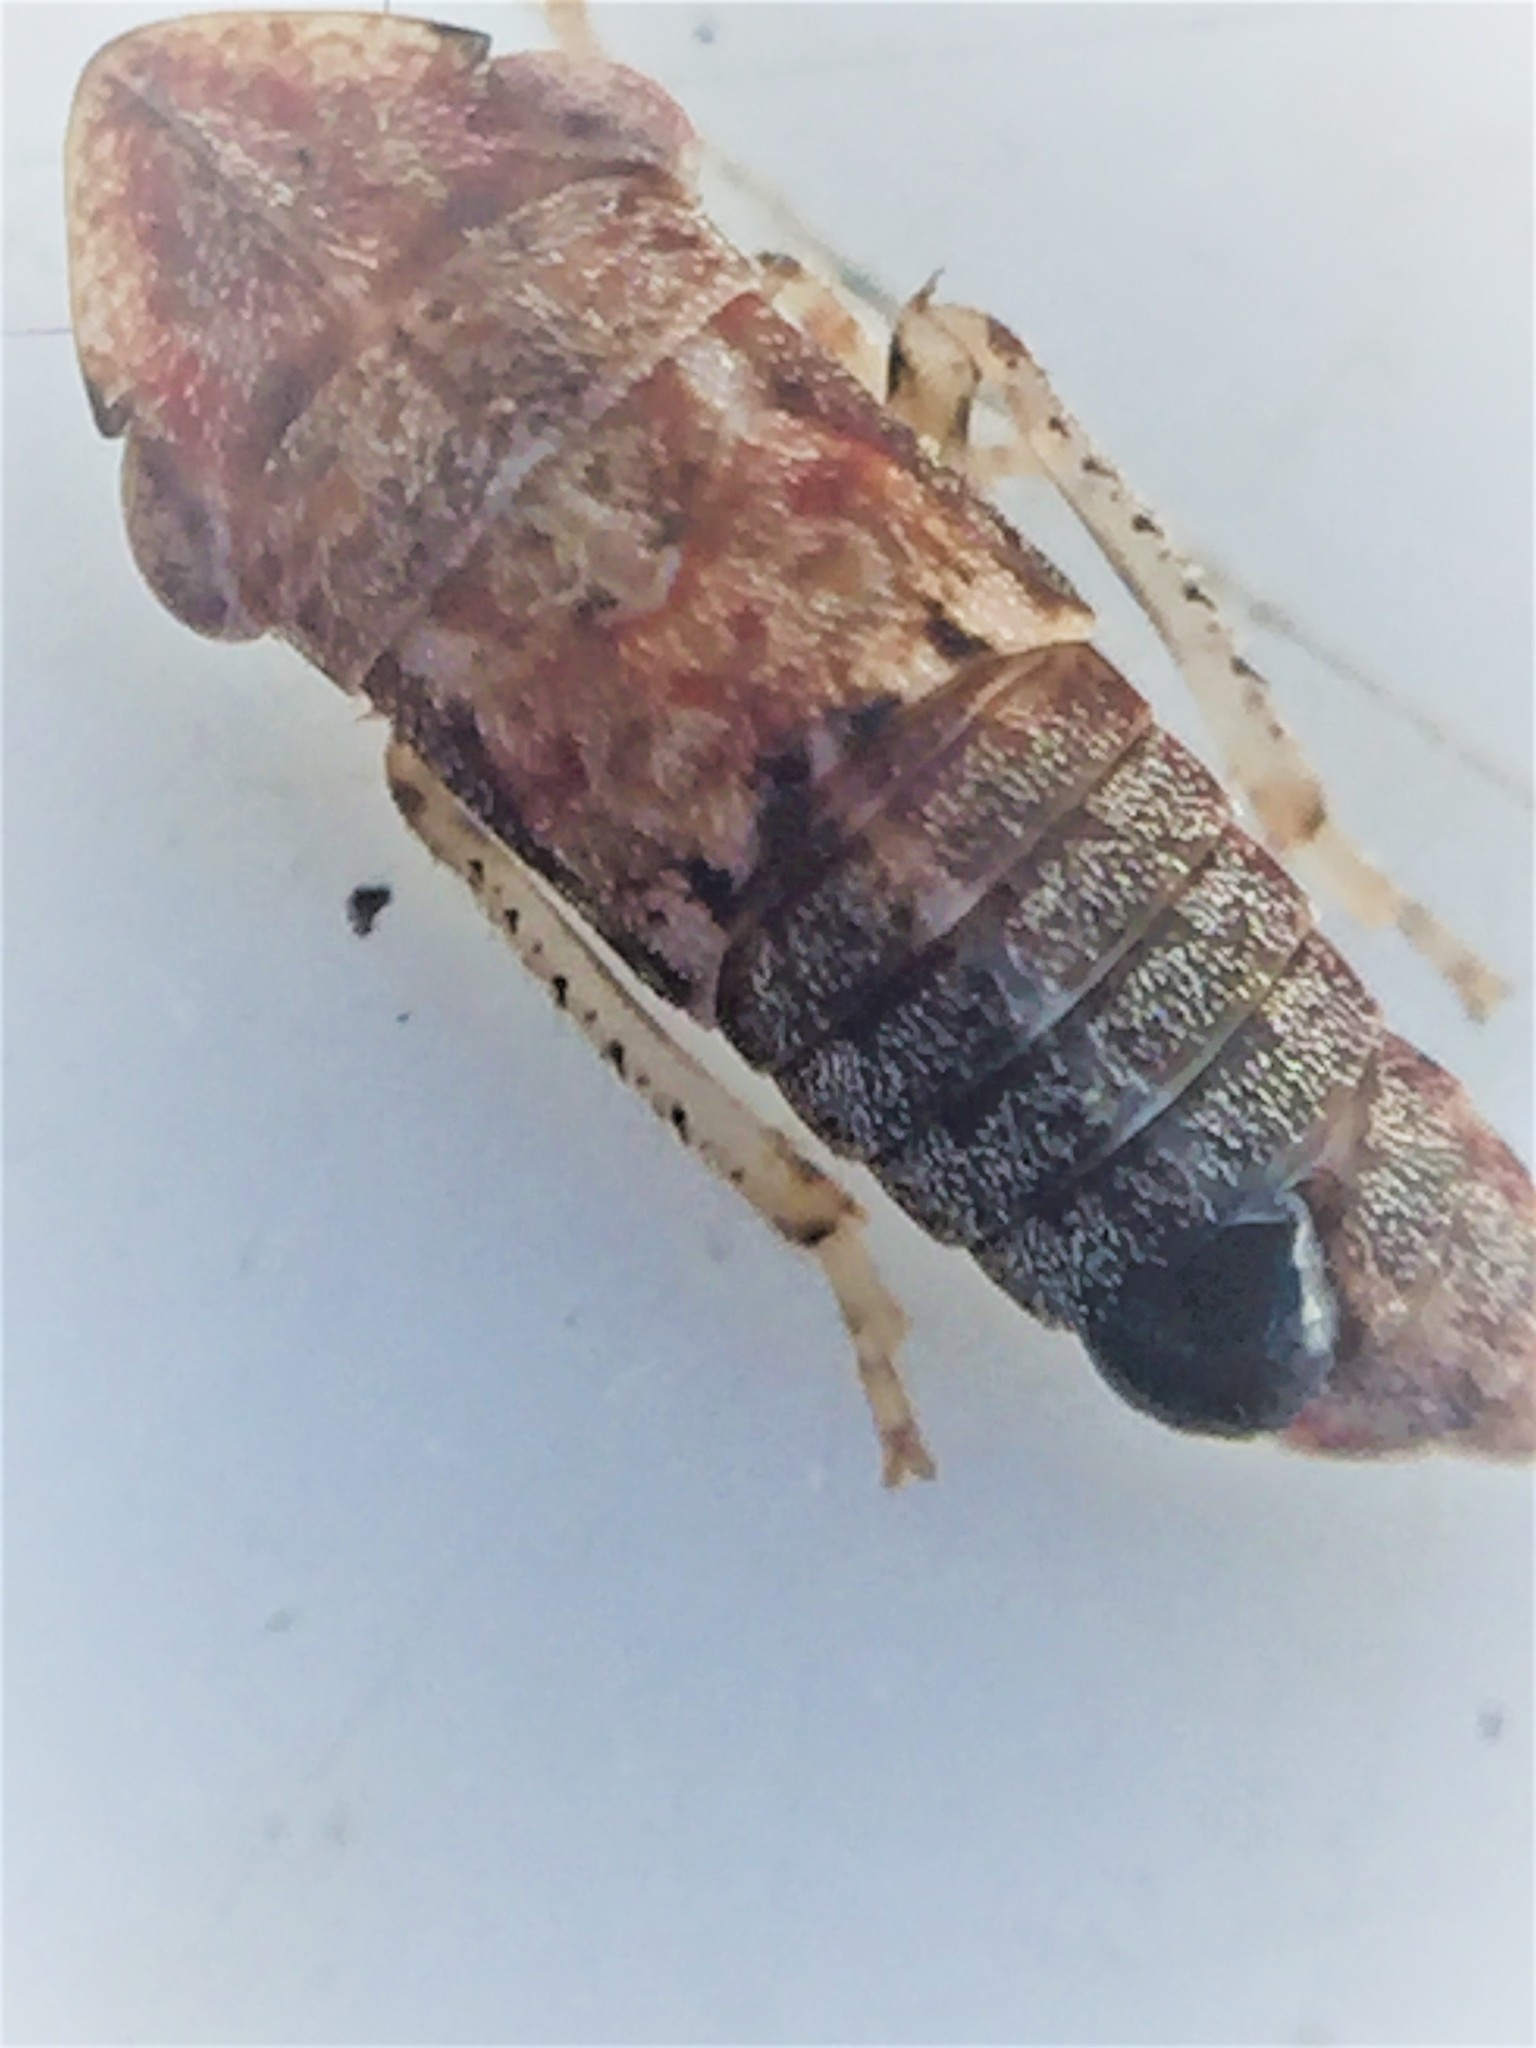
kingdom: Animalia
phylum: Arthropoda
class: Insecta
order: Strepsiptera
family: Halictophagidae
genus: Coriophagus
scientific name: Coriophagus casui
